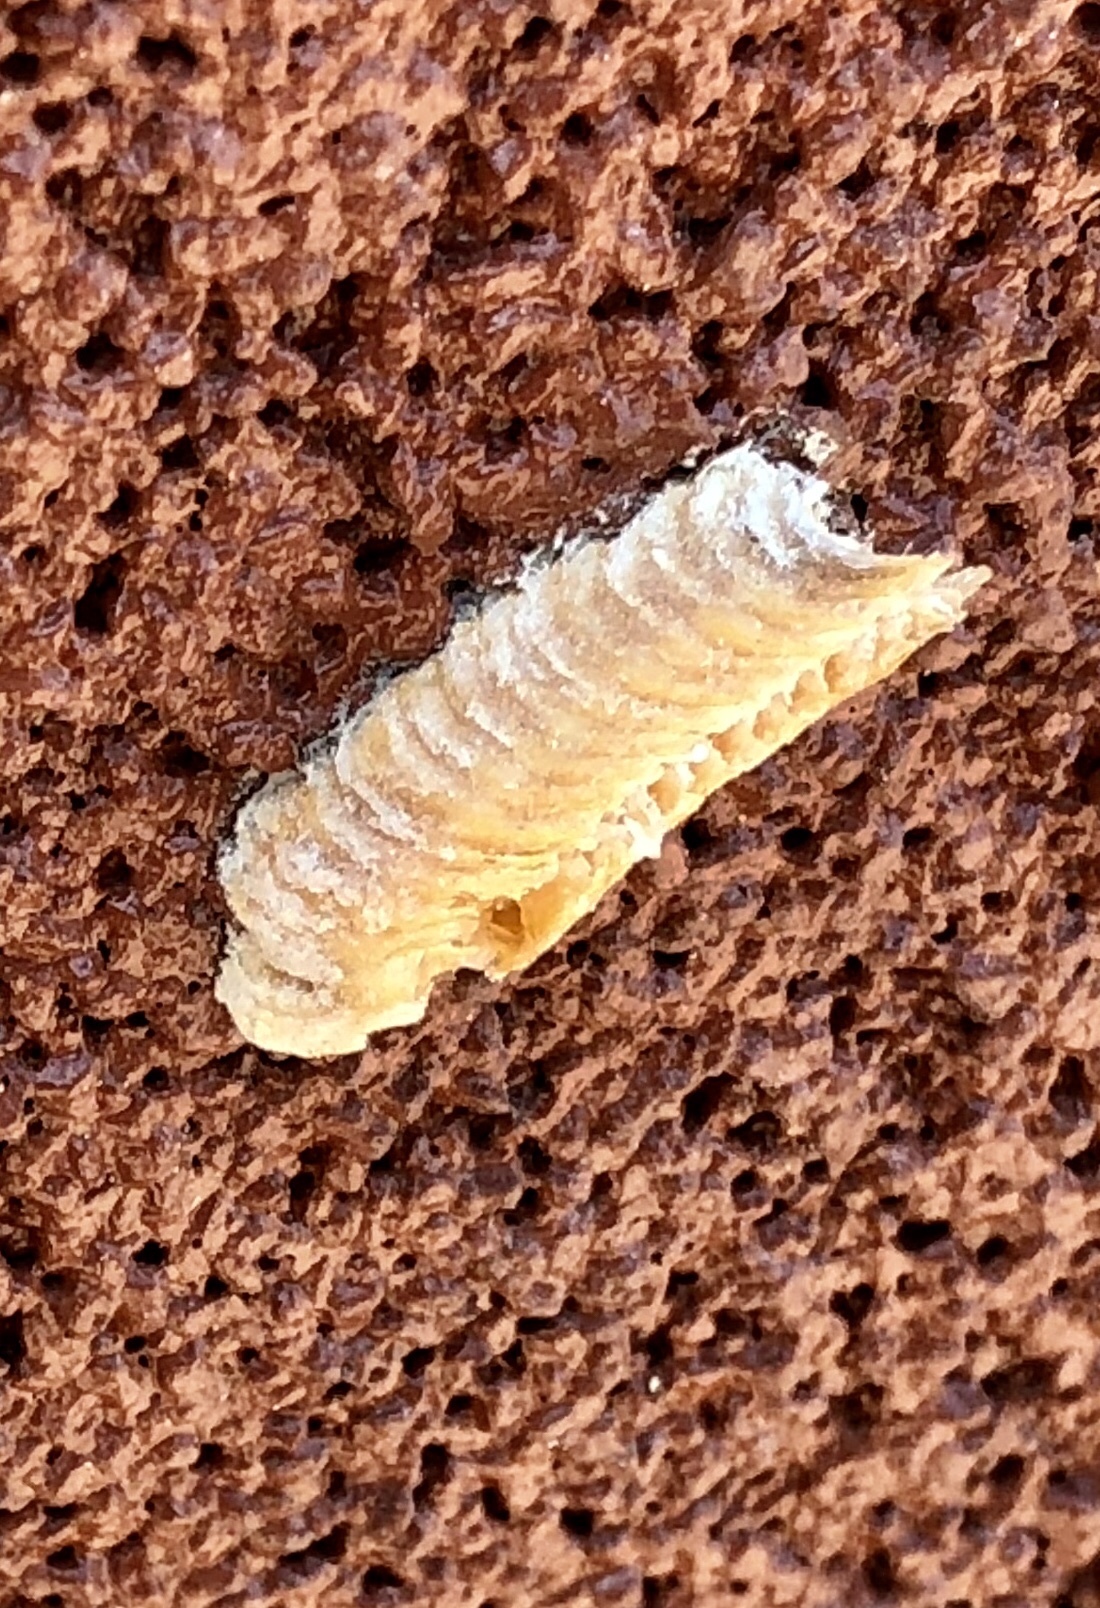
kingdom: Animalia
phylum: Arthropoda
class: Insecta
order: Mantodea
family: Eremiaphilidae
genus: Iris
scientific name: Iris oratoria
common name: Mediterranean mantis
